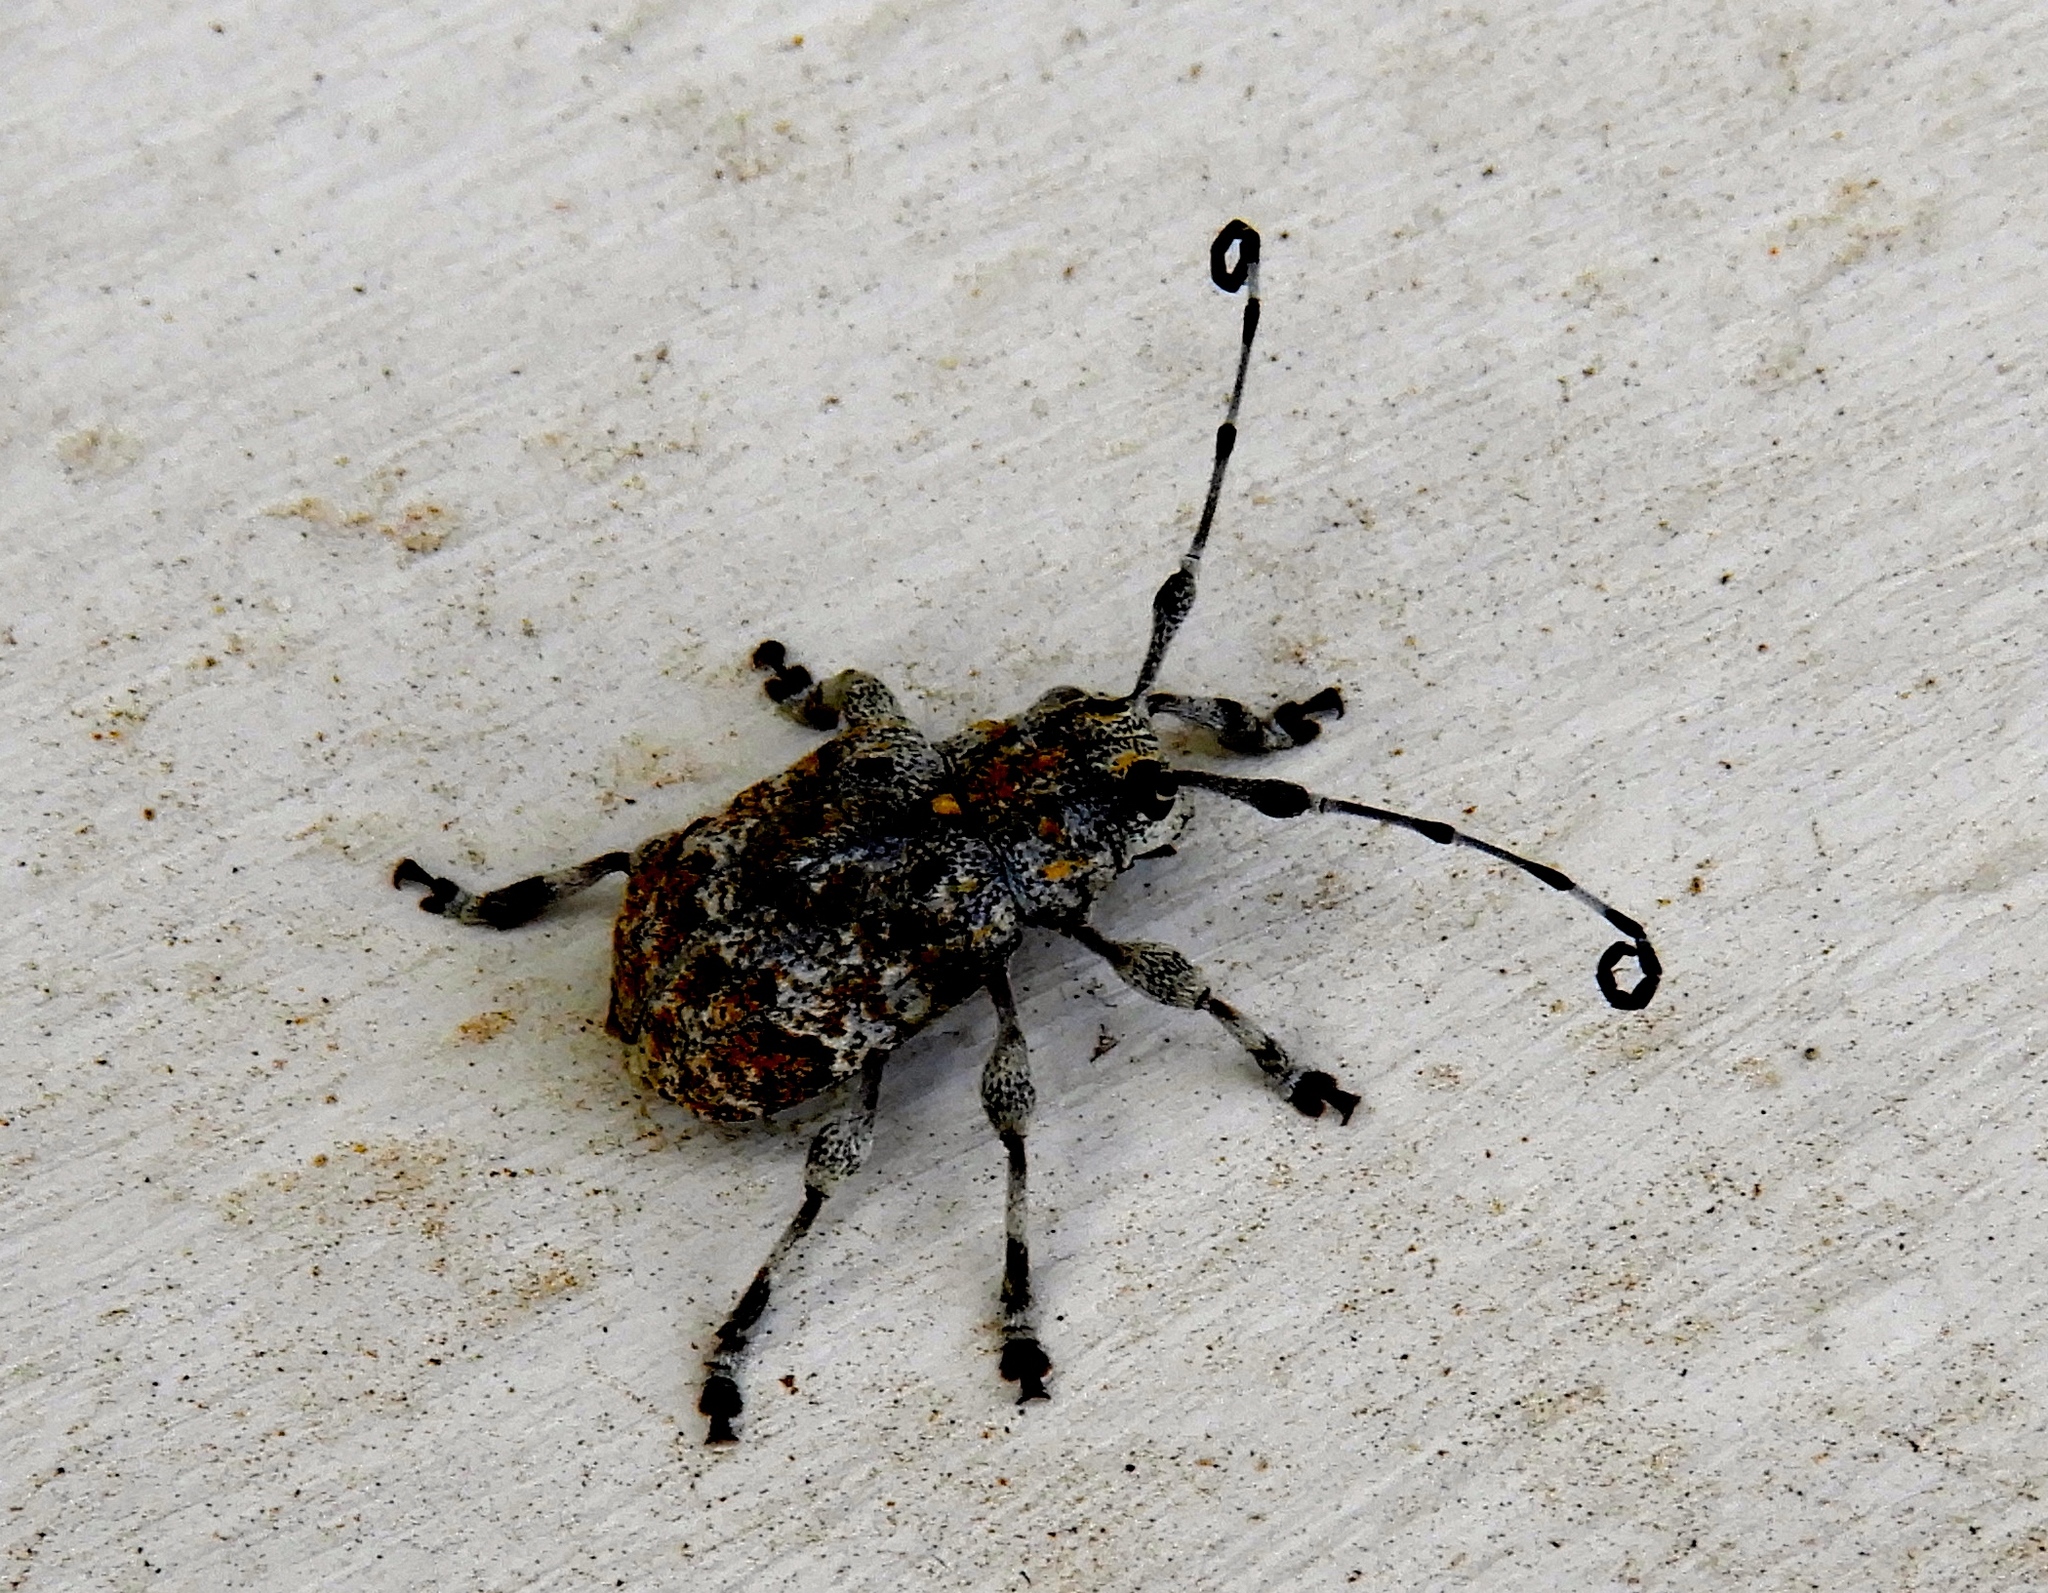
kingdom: Animalia
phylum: Arthropoda
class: Insecta
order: Coleoptera
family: Cerambycidae
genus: Thryallis
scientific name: Thryallis
